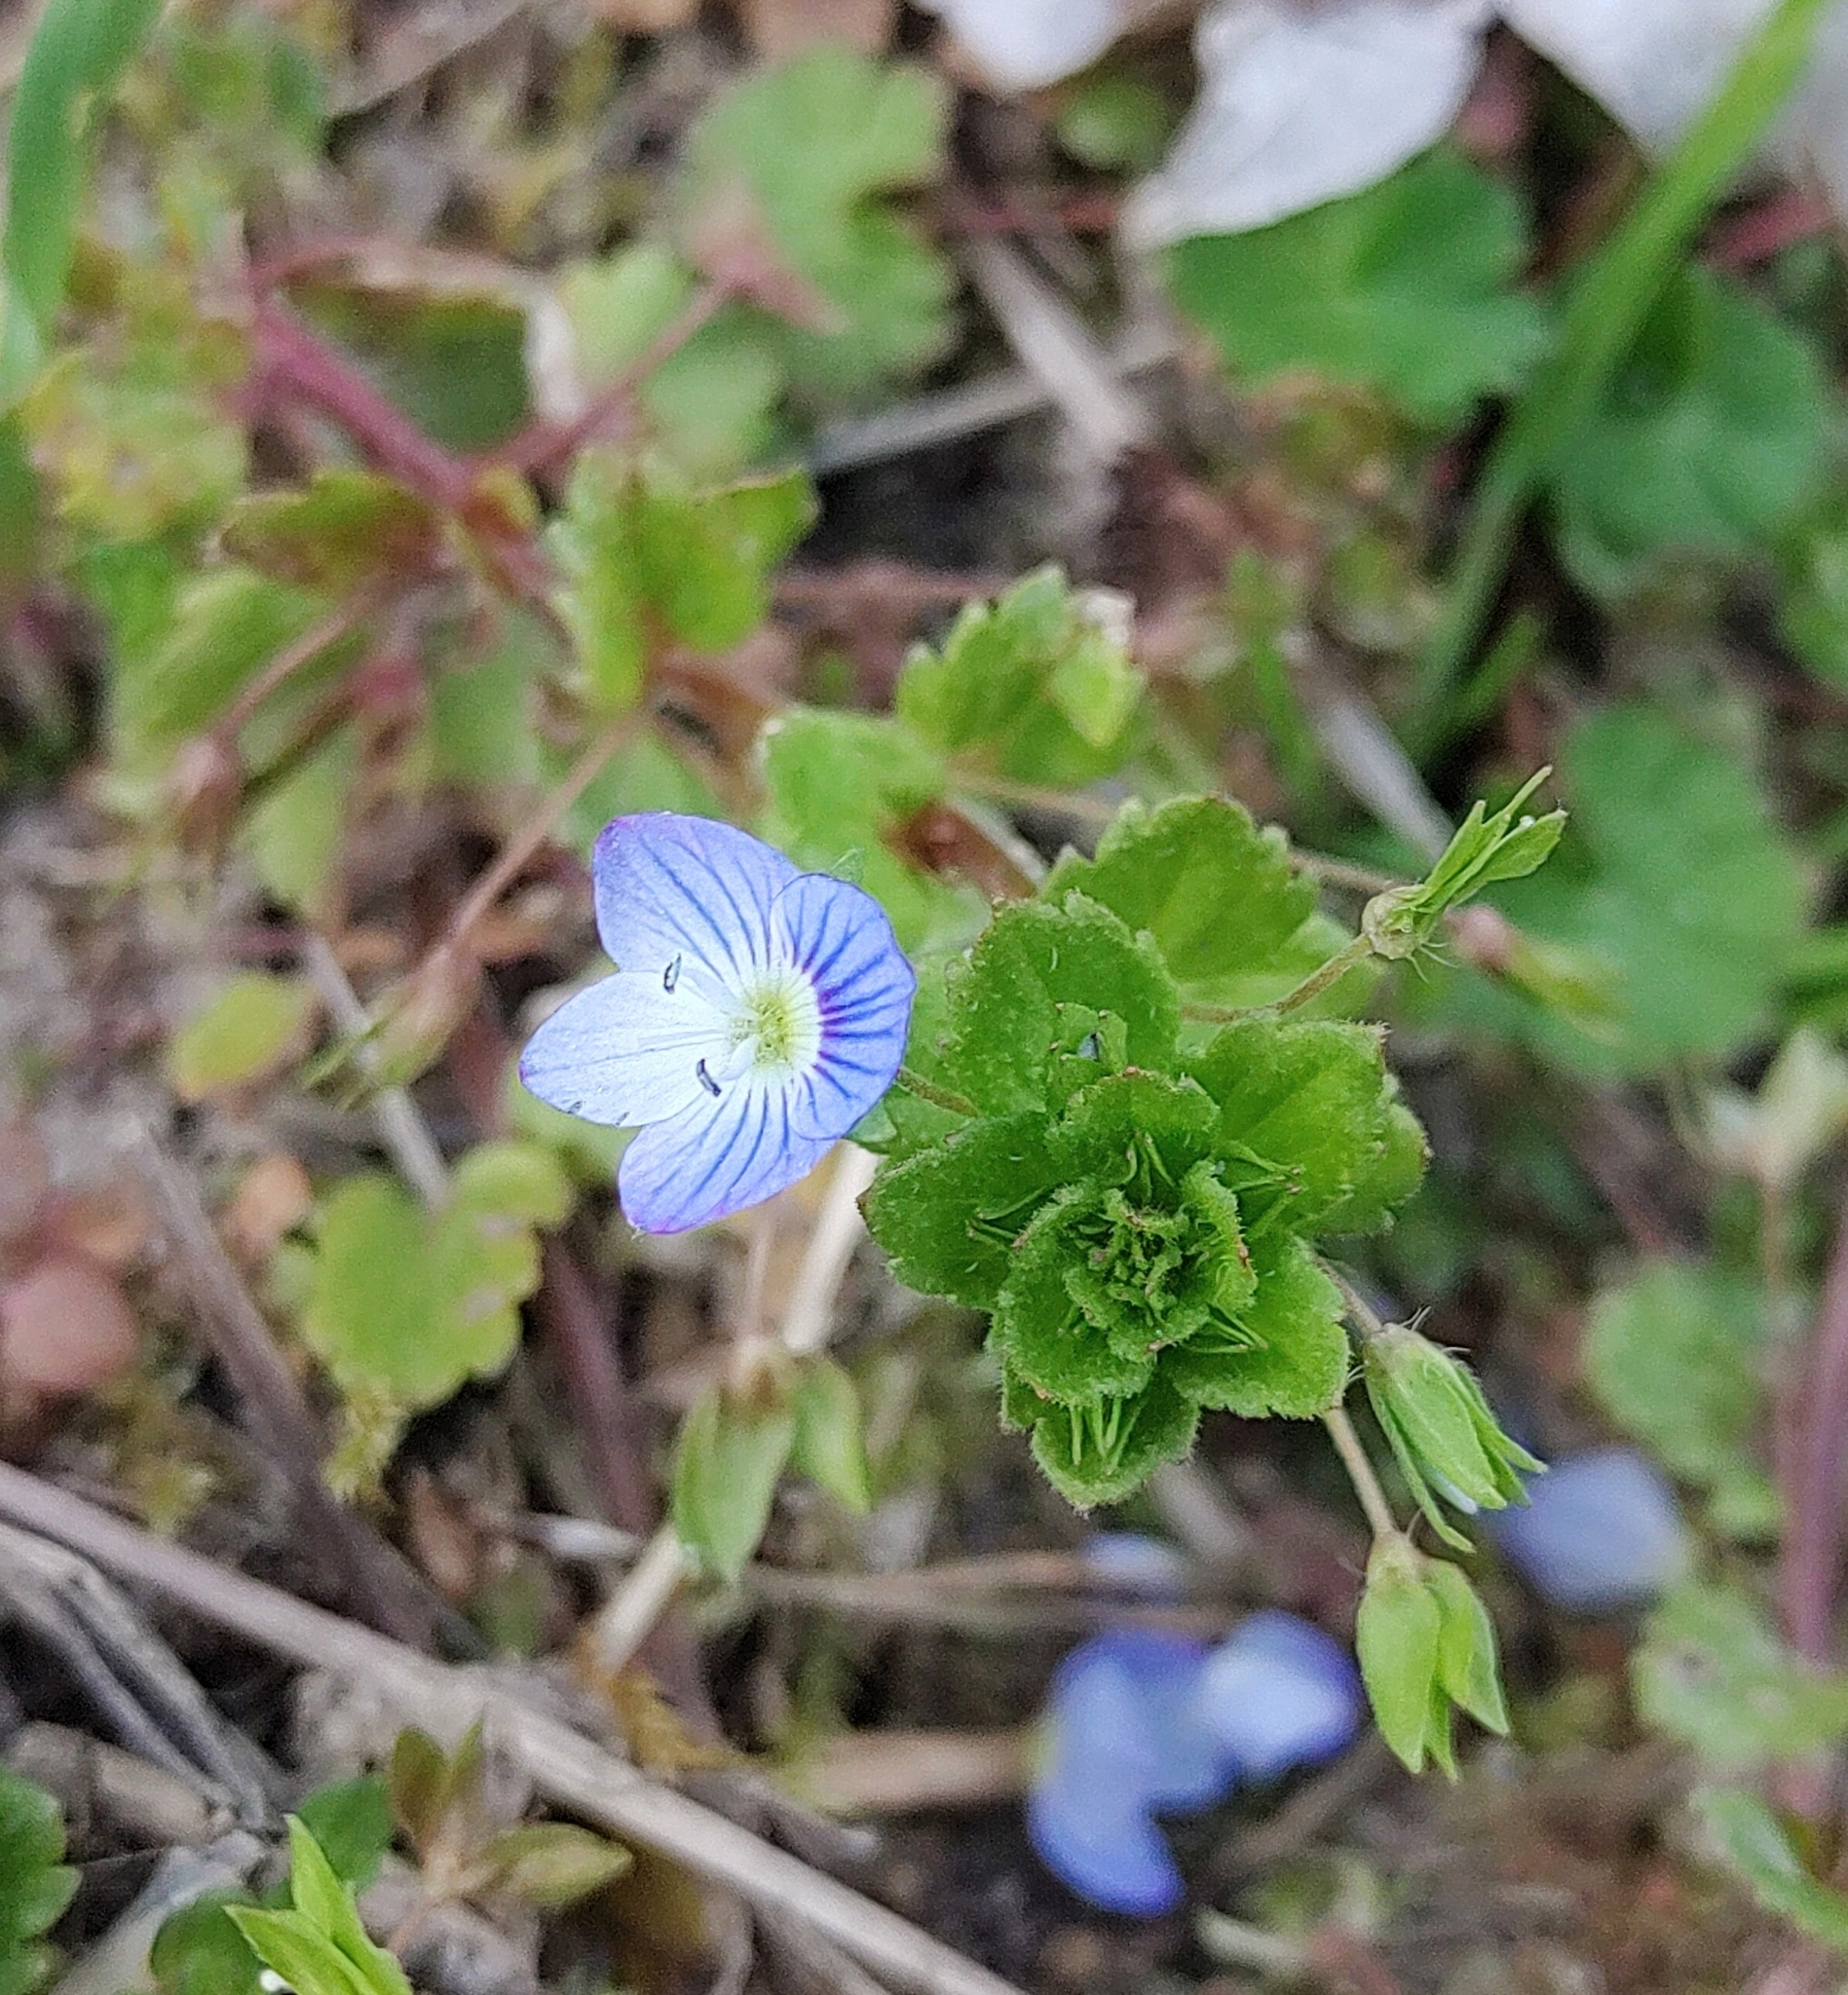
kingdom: Plantae
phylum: Tracheophyta
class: Magnoliopsida
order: Lamiales
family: Plantaginaceae
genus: Veronica
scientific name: Veronica persica
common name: Common field-speedwell
